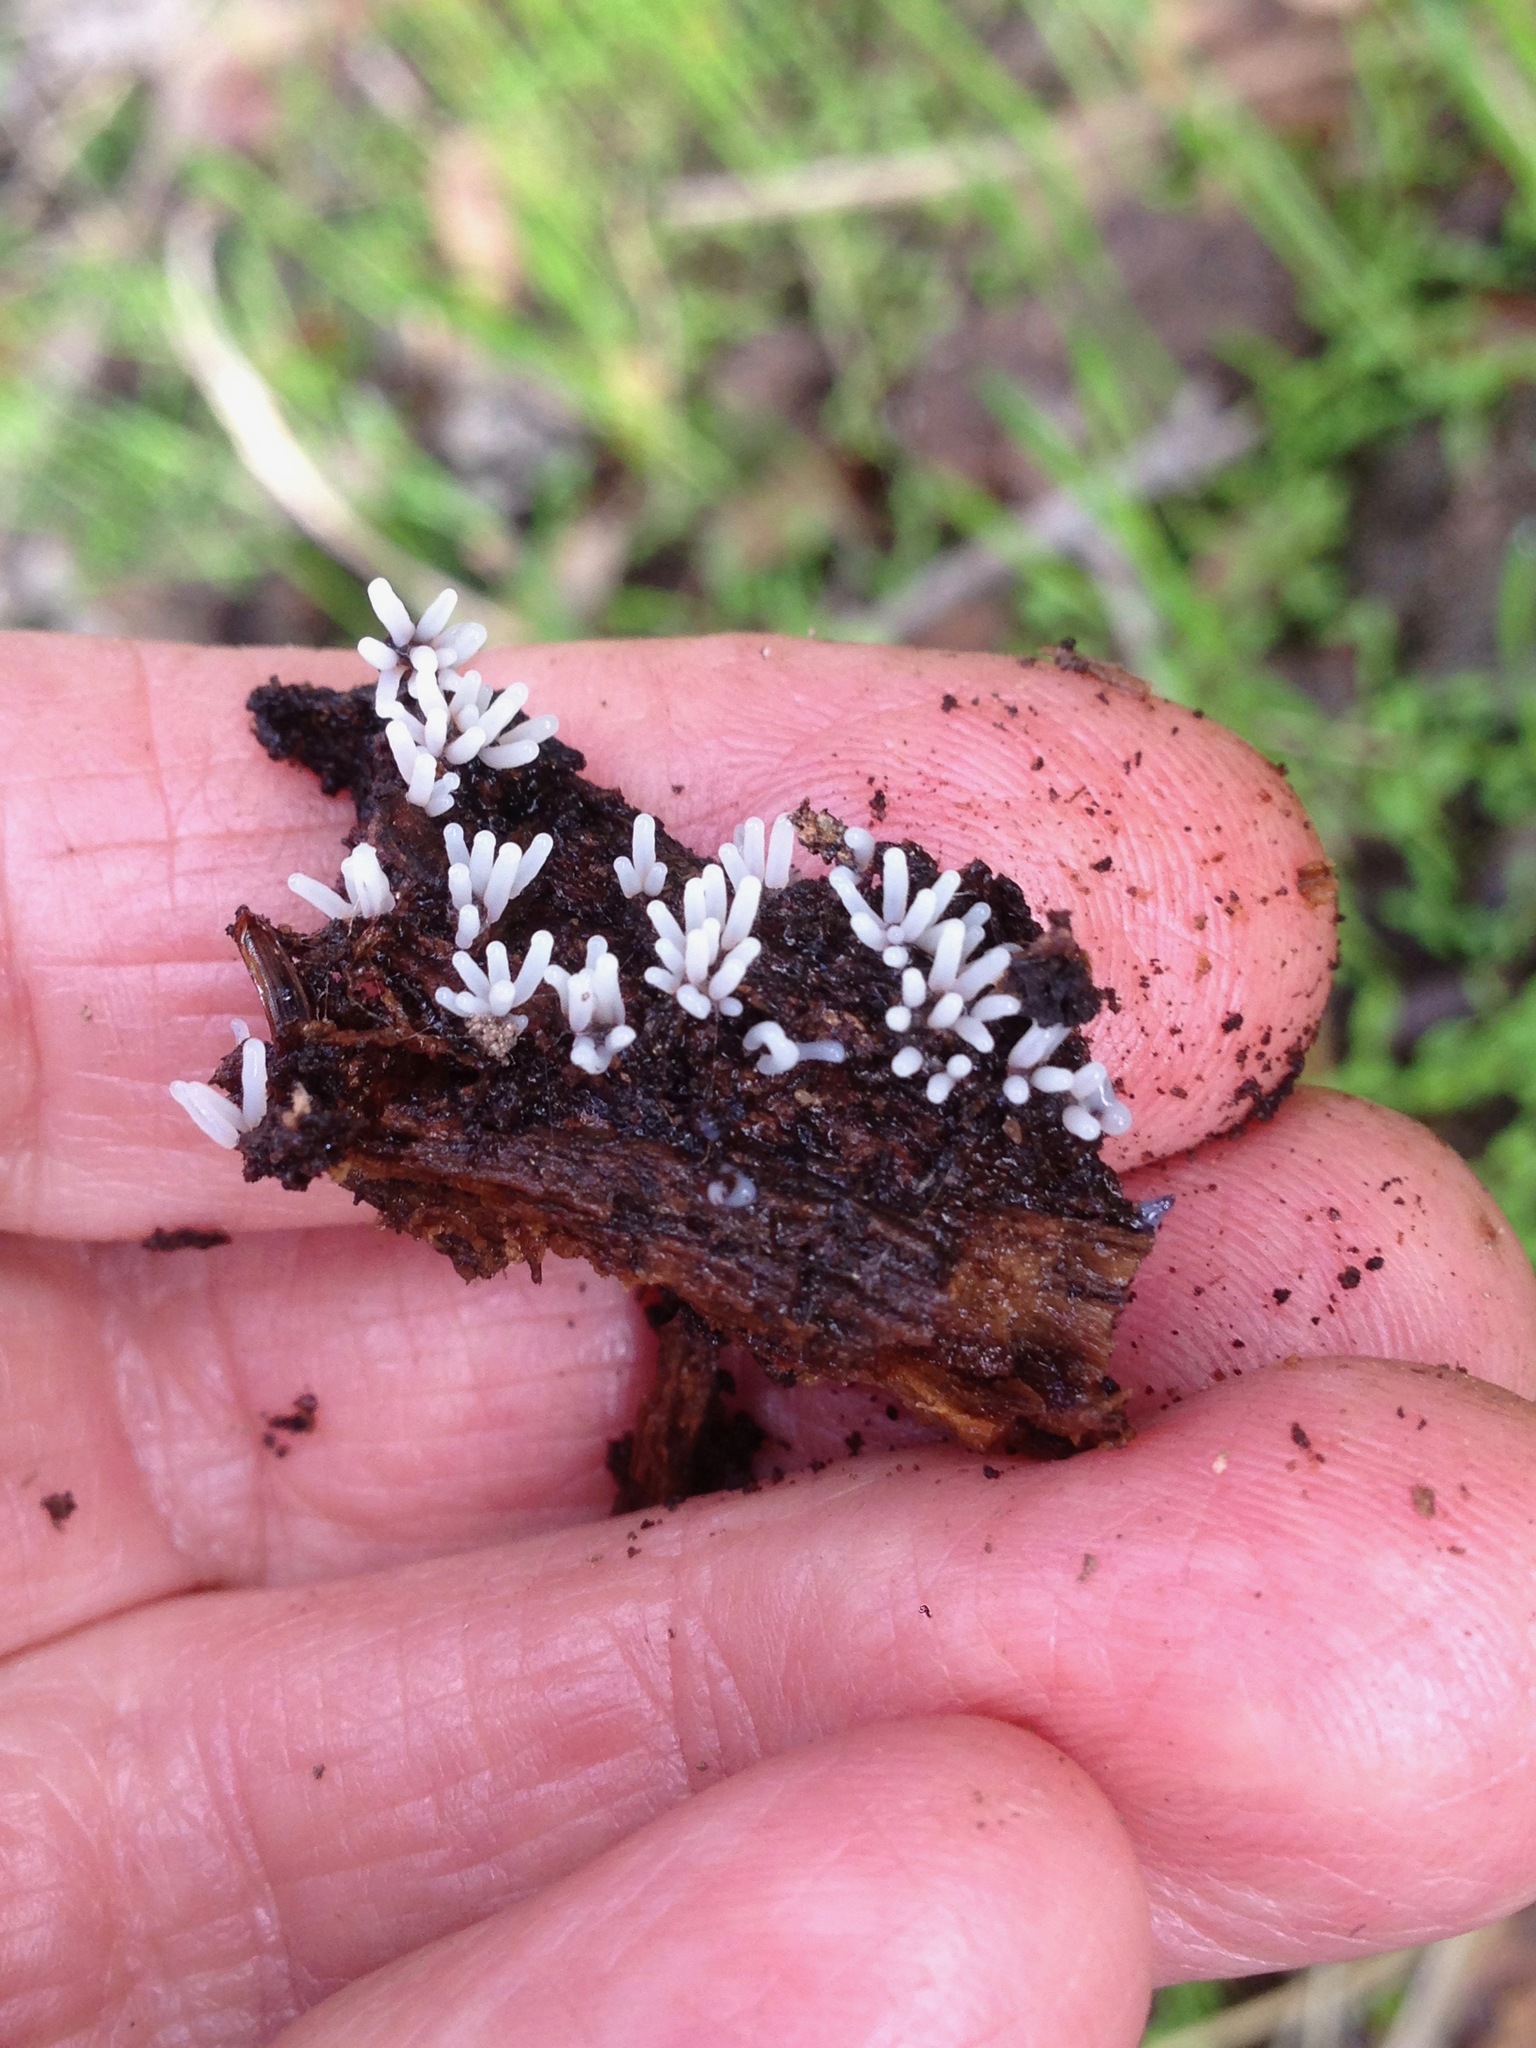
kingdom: Protozoa
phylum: Mycetozoa
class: Protosteliomycetes
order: Ceratiomyxales
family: Ceratiomyxaceae
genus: Ceratiomyxa
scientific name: Ceratiomyxa fruticulosa
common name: Honeycomb coral slime mold
